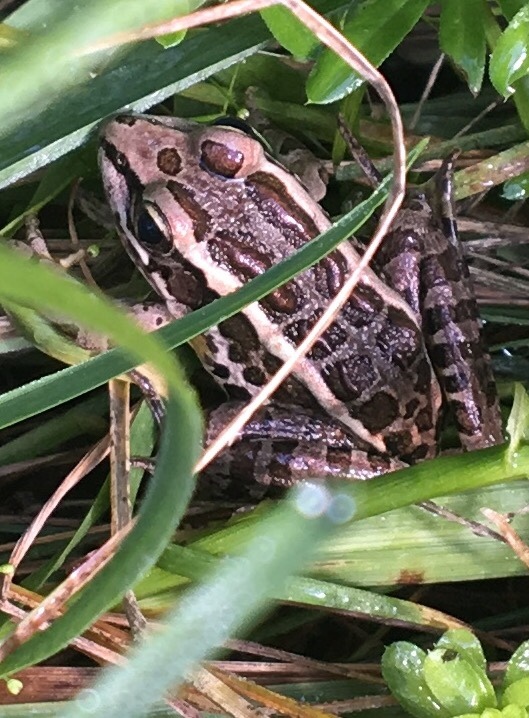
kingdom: Animalia
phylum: Chordata
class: Amphibia
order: Anura
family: Ranidae
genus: Lithobates
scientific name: Lithobates palustris
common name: Pickerel frog
